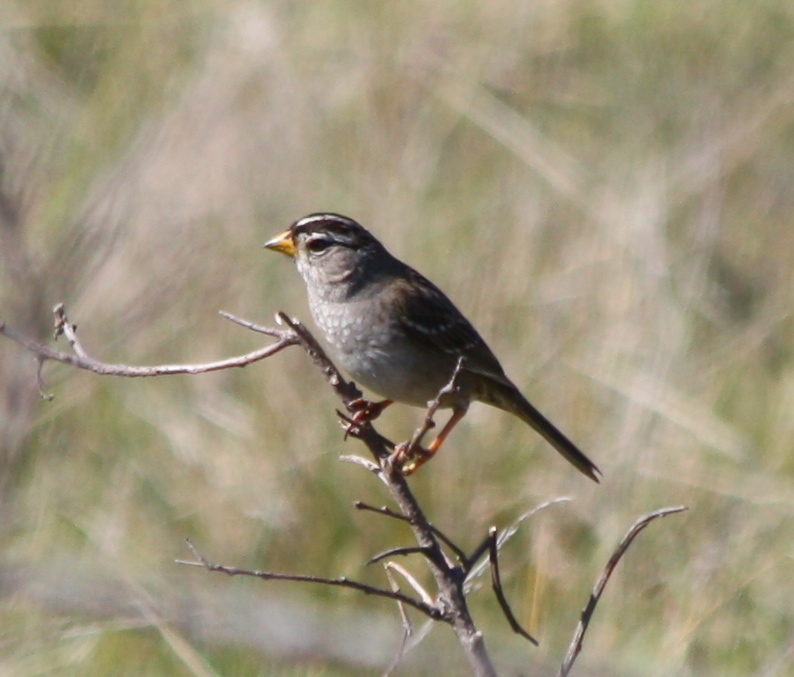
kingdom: Animalia
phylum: Chordata
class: Aves
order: Passeriformes
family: Passerellidae
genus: Zonotrichia
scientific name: Zonotrichia leucophrys
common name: White-crowned sparrow
